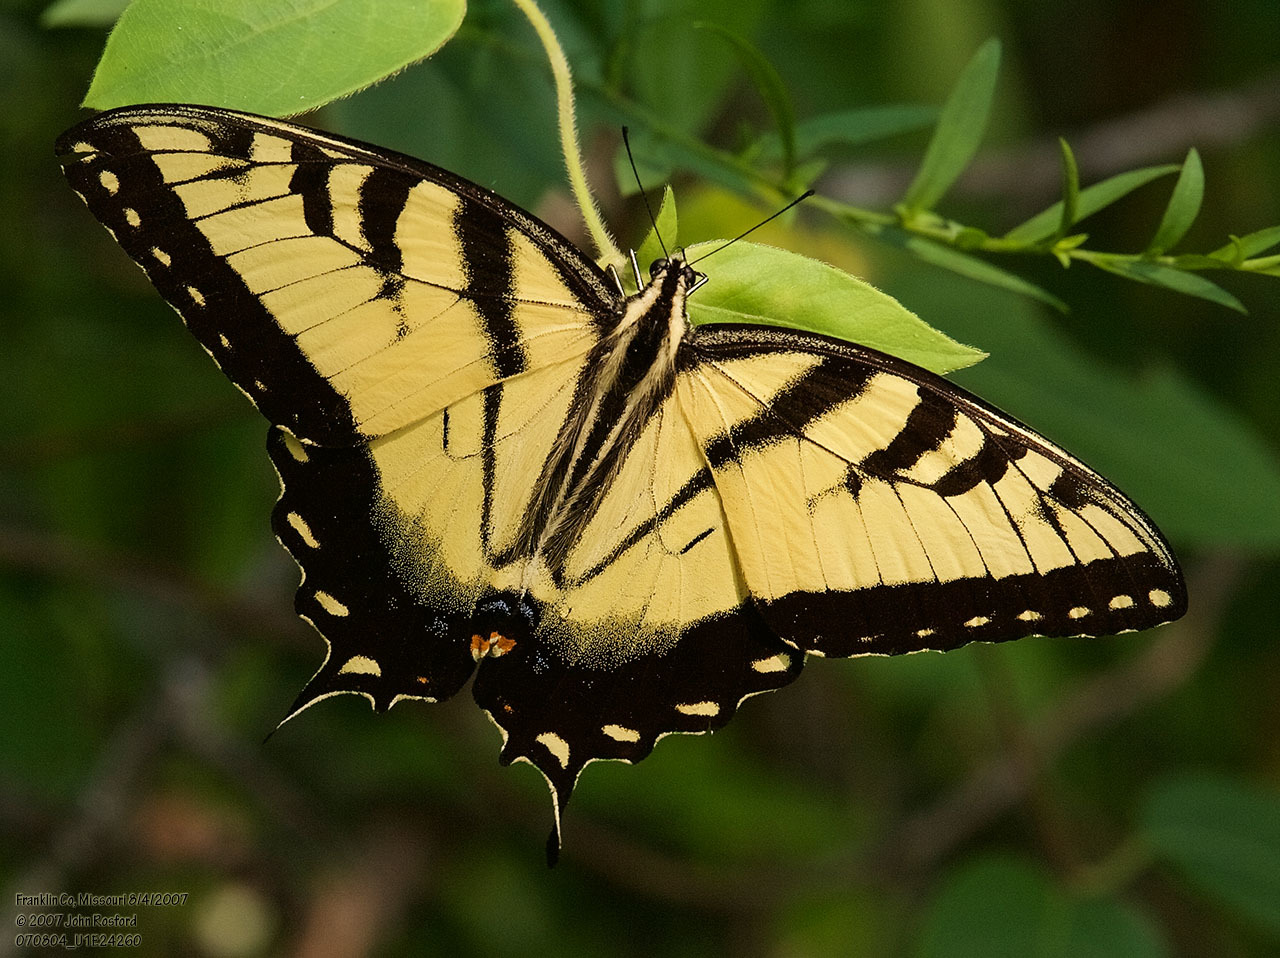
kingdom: Animalia
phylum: Arthropoda
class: Insecta
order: Lepidoptera
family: Papilionidae
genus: Papilio
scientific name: Papilio glaucus
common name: Tiger swallowtail
